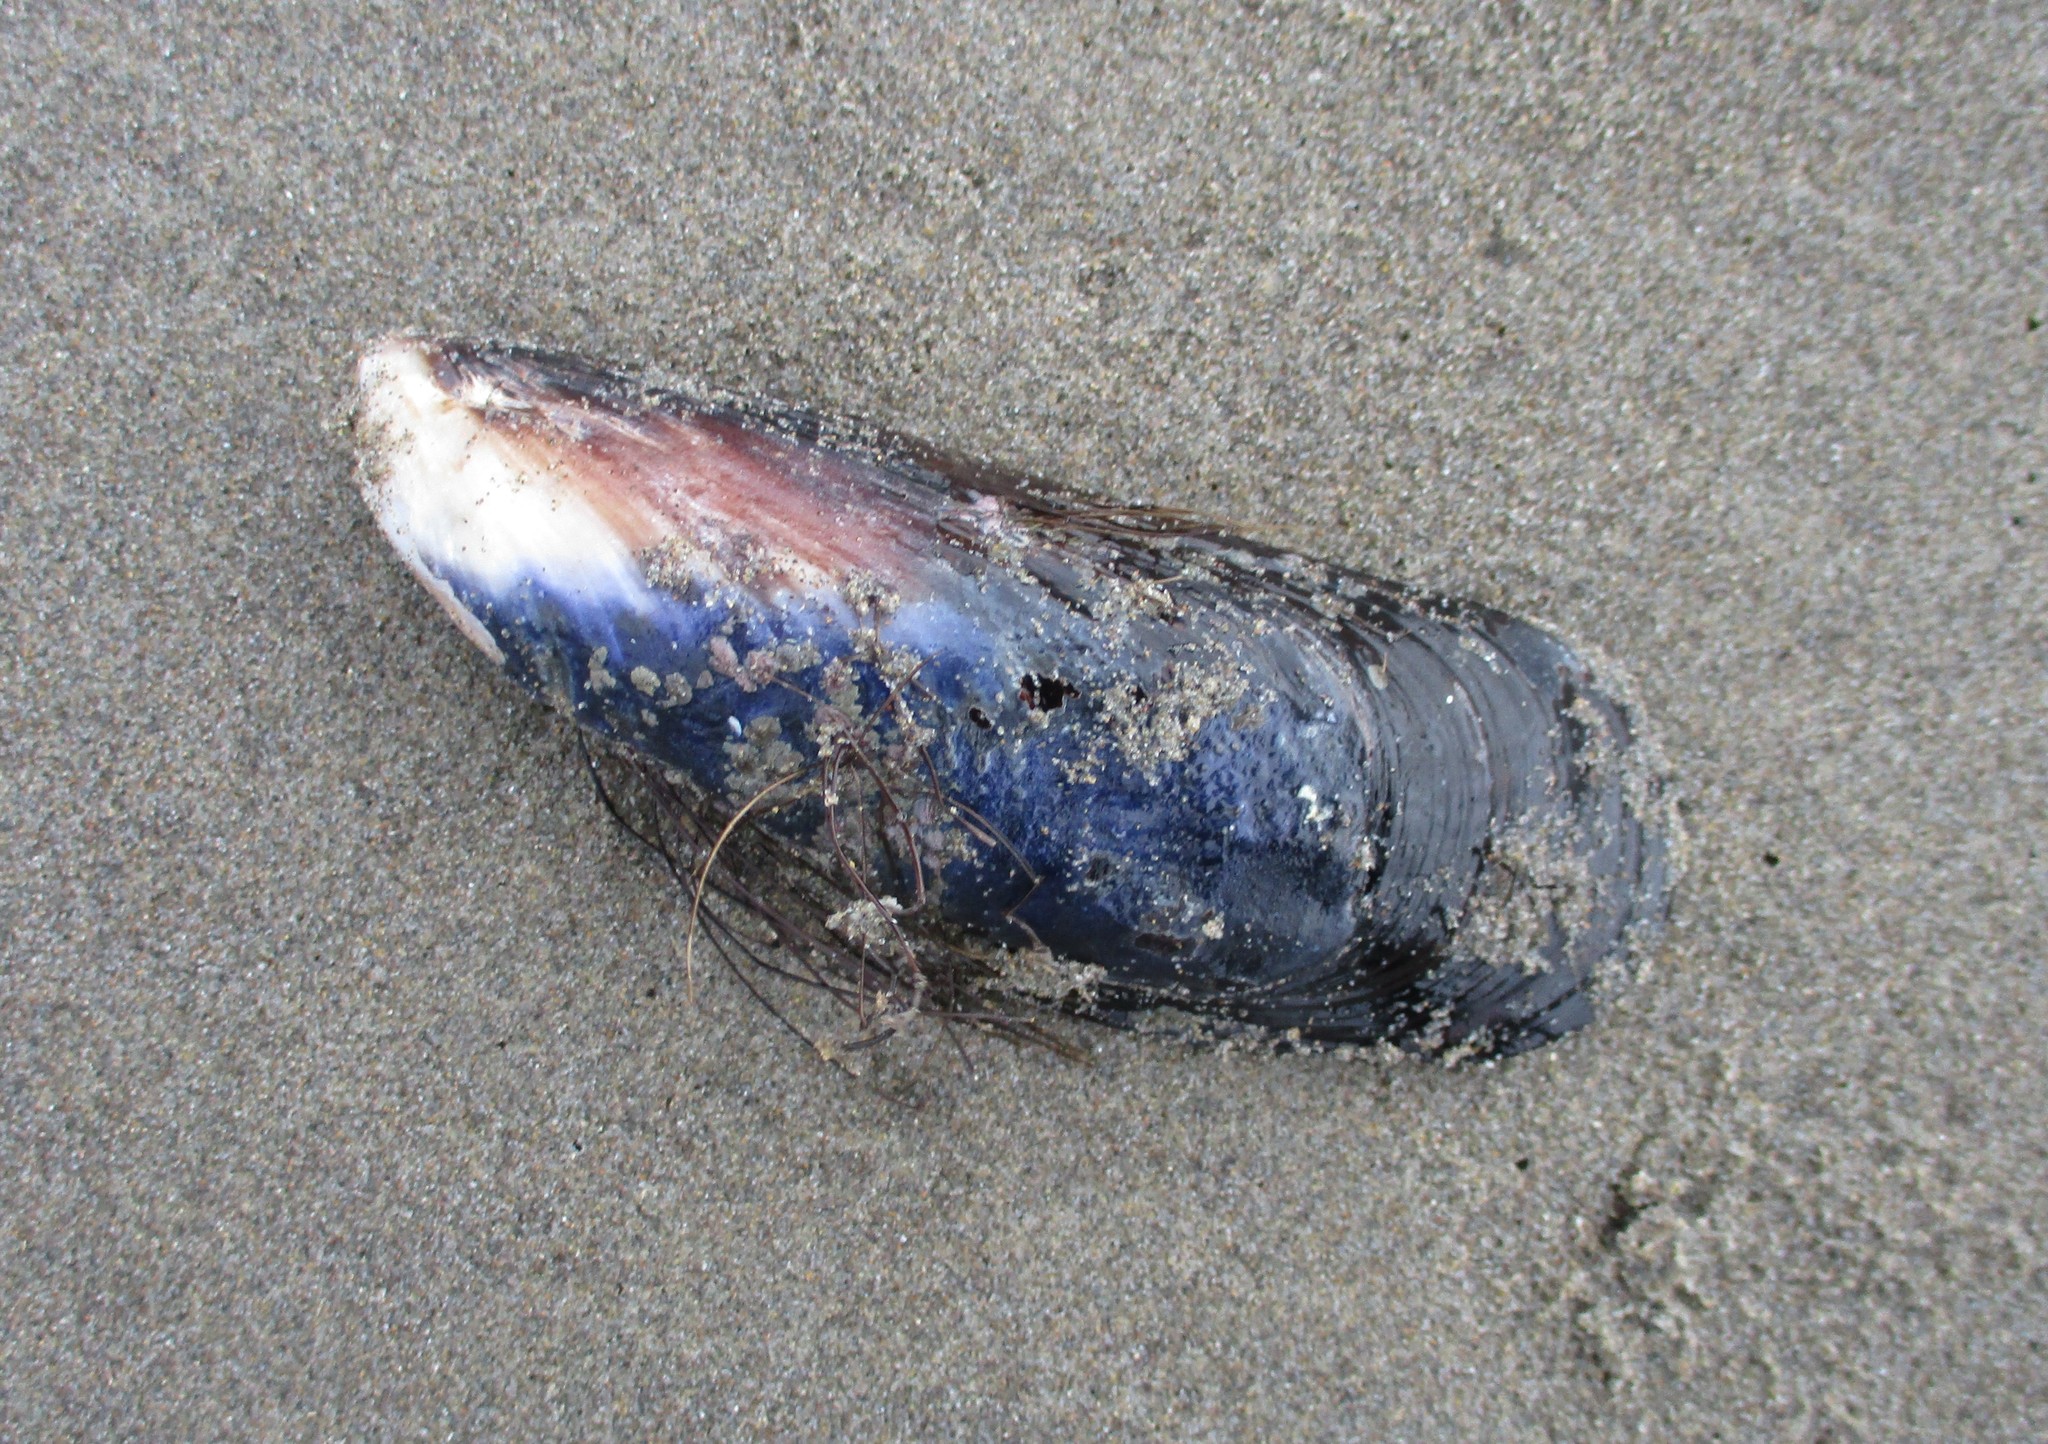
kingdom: Animalia
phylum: Mollusca
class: Bivalvia
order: Mytilida
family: Mytilidae
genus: Mytilus
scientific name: Mytilus californianus
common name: California mussel
